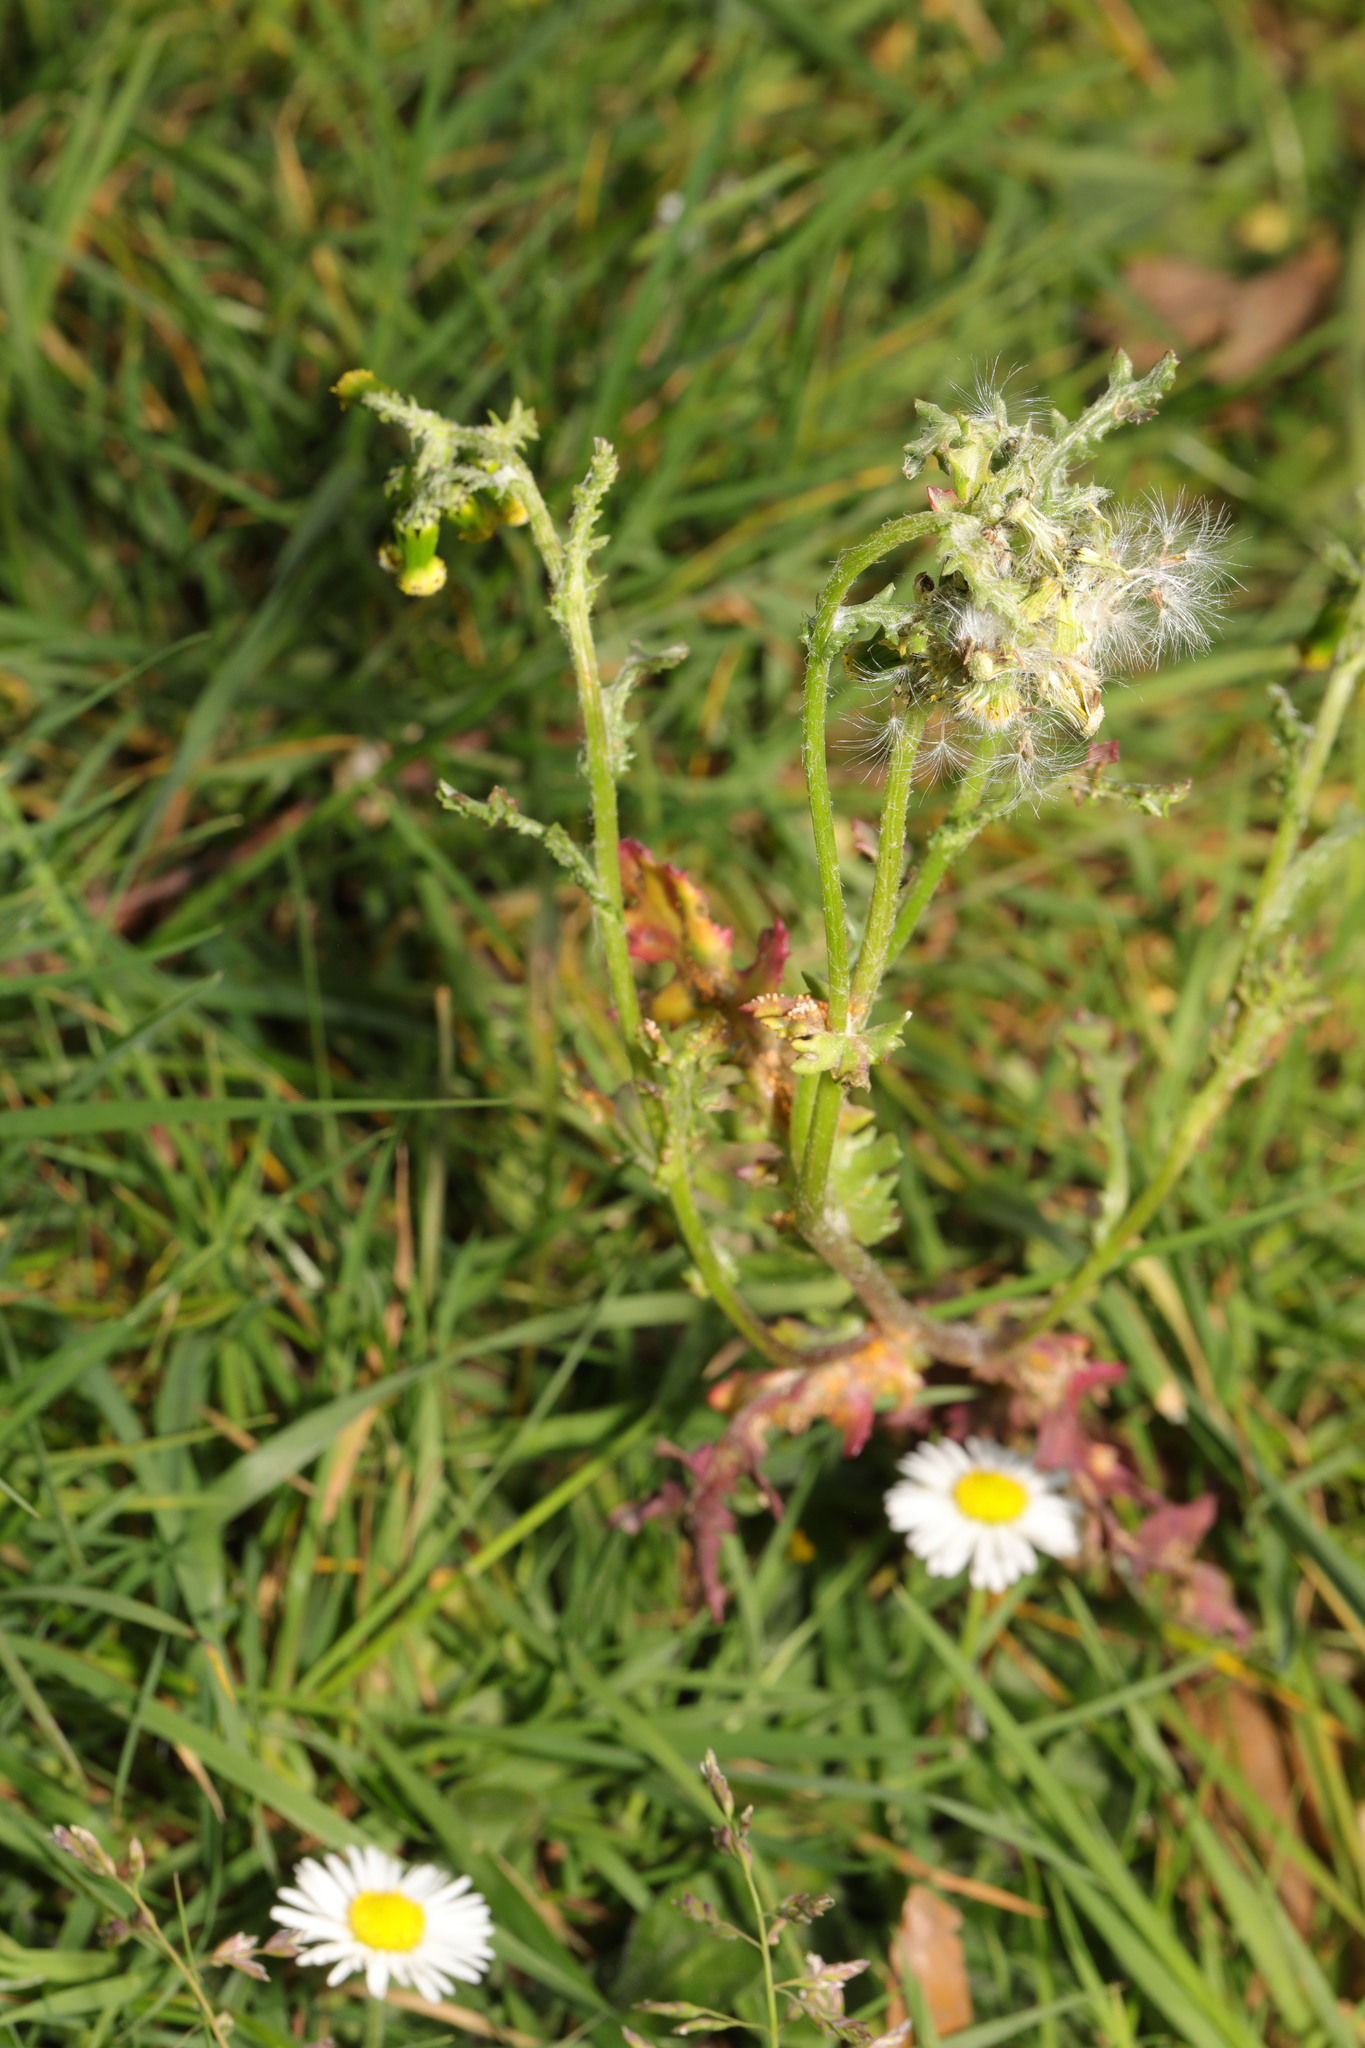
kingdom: Plantae
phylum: Tracheophyta
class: Magnoliopsida
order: Asterales
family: Asteraceae
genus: Senecio
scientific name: Senecio vulgaris
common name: Old-man-in-the-spring
